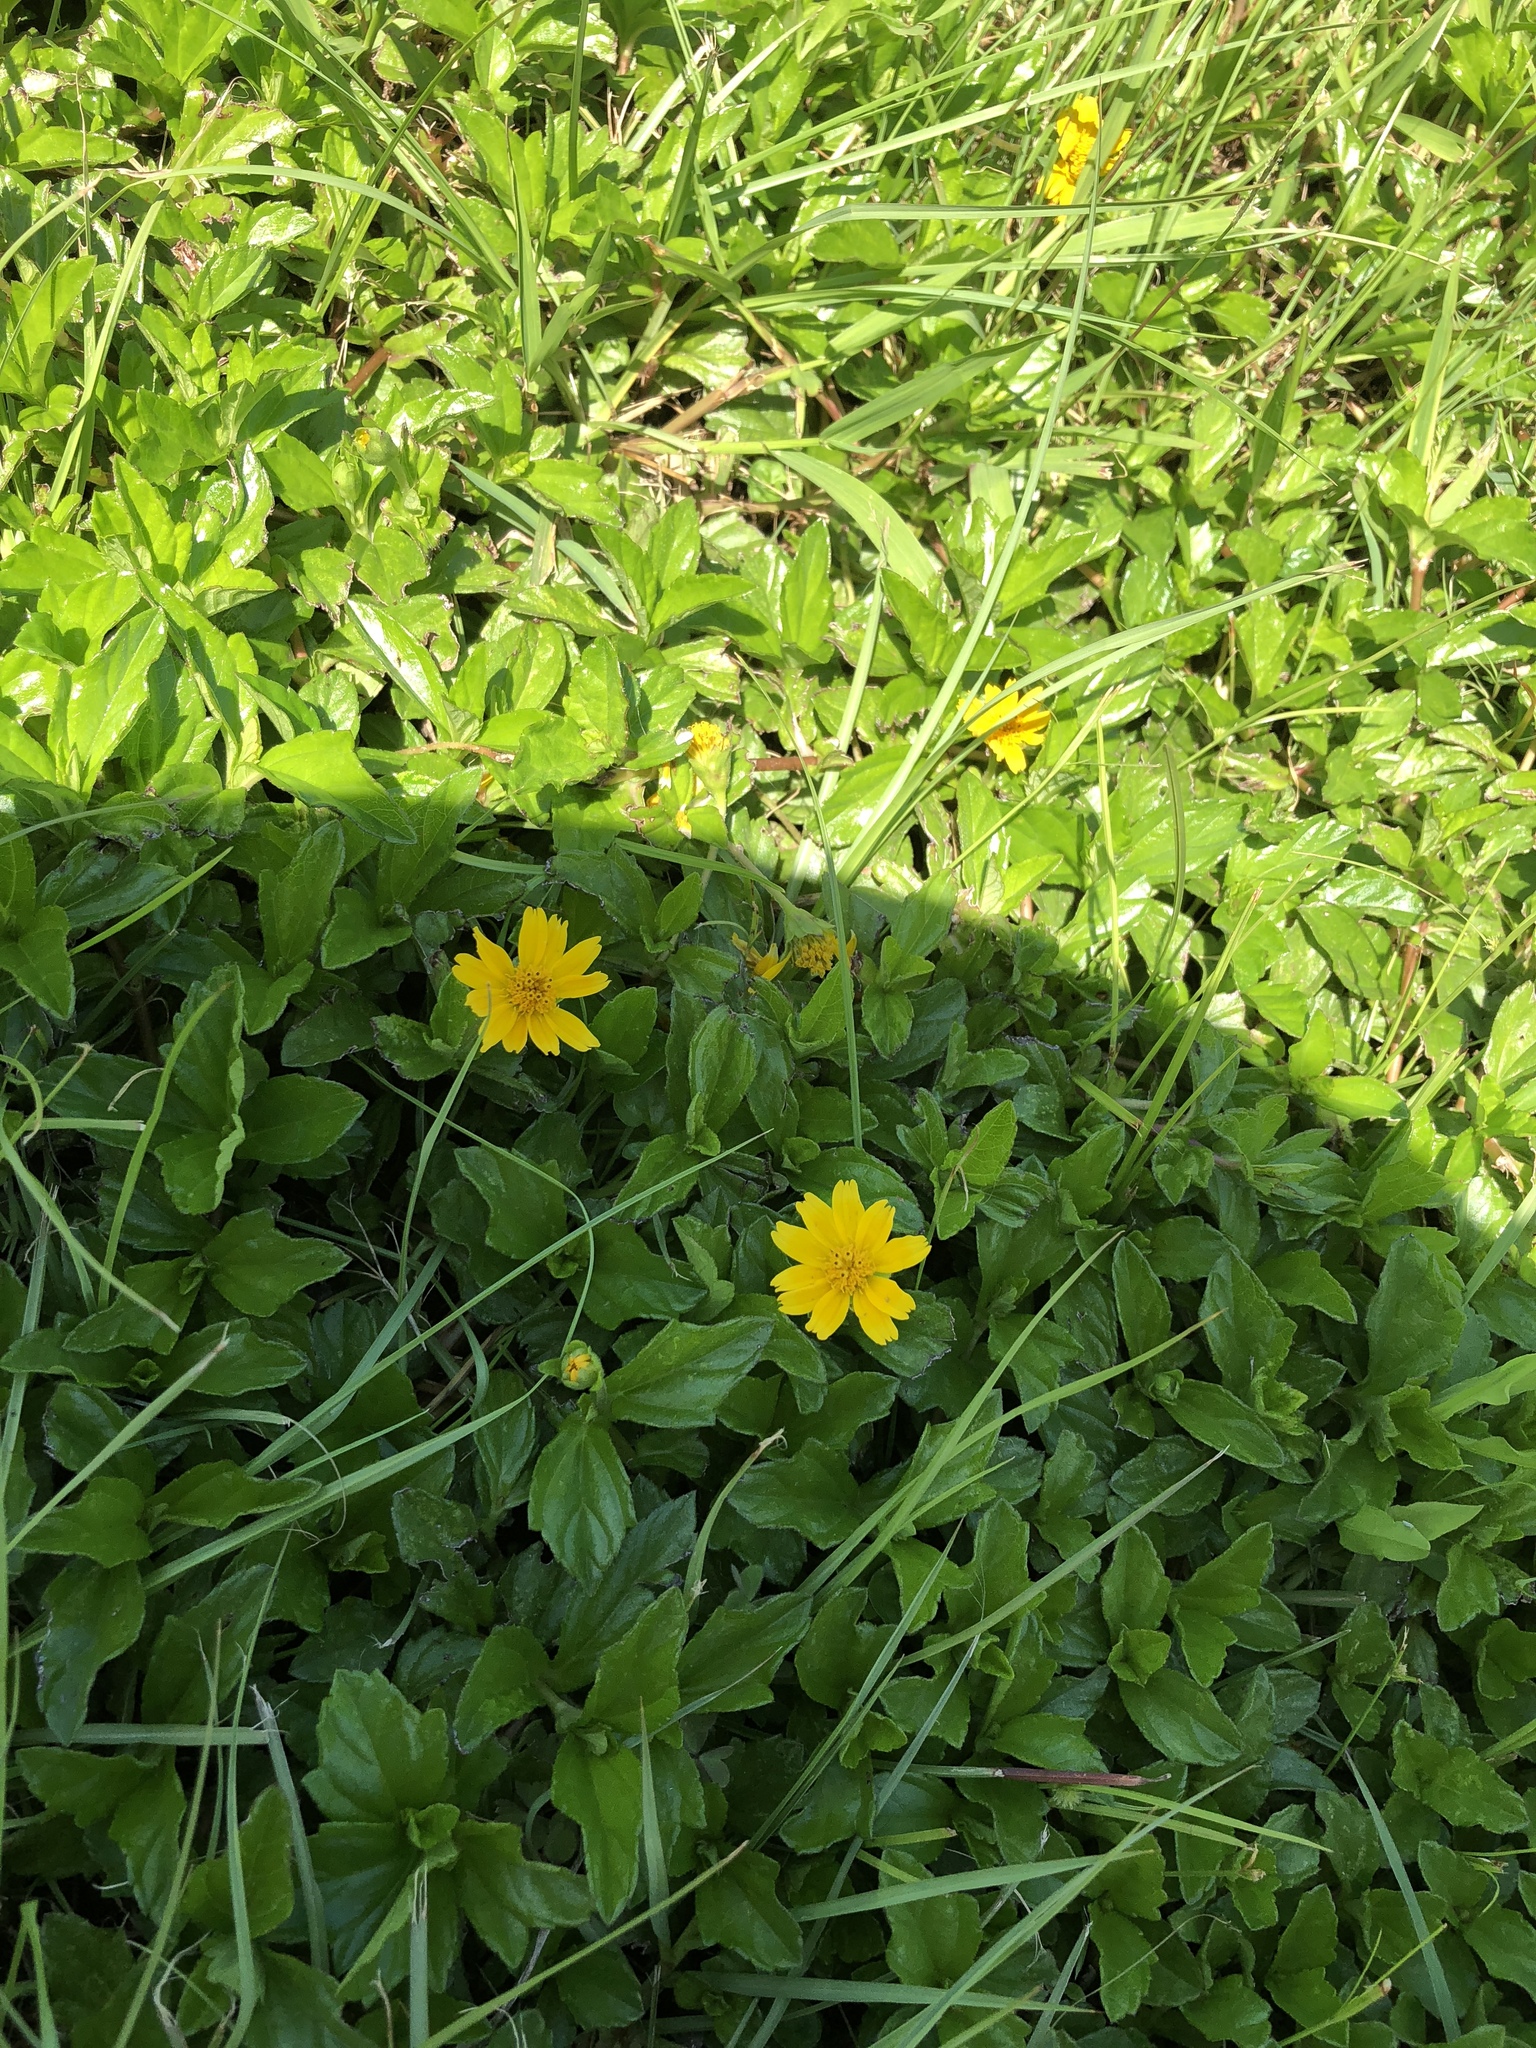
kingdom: Plantae
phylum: Tracheophyta
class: Magnoliopsida
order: Asterales
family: Asteraceae
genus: Sphagneticola
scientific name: Sphagneticola trilobata
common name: Bay biscayne creeping-oxeye
